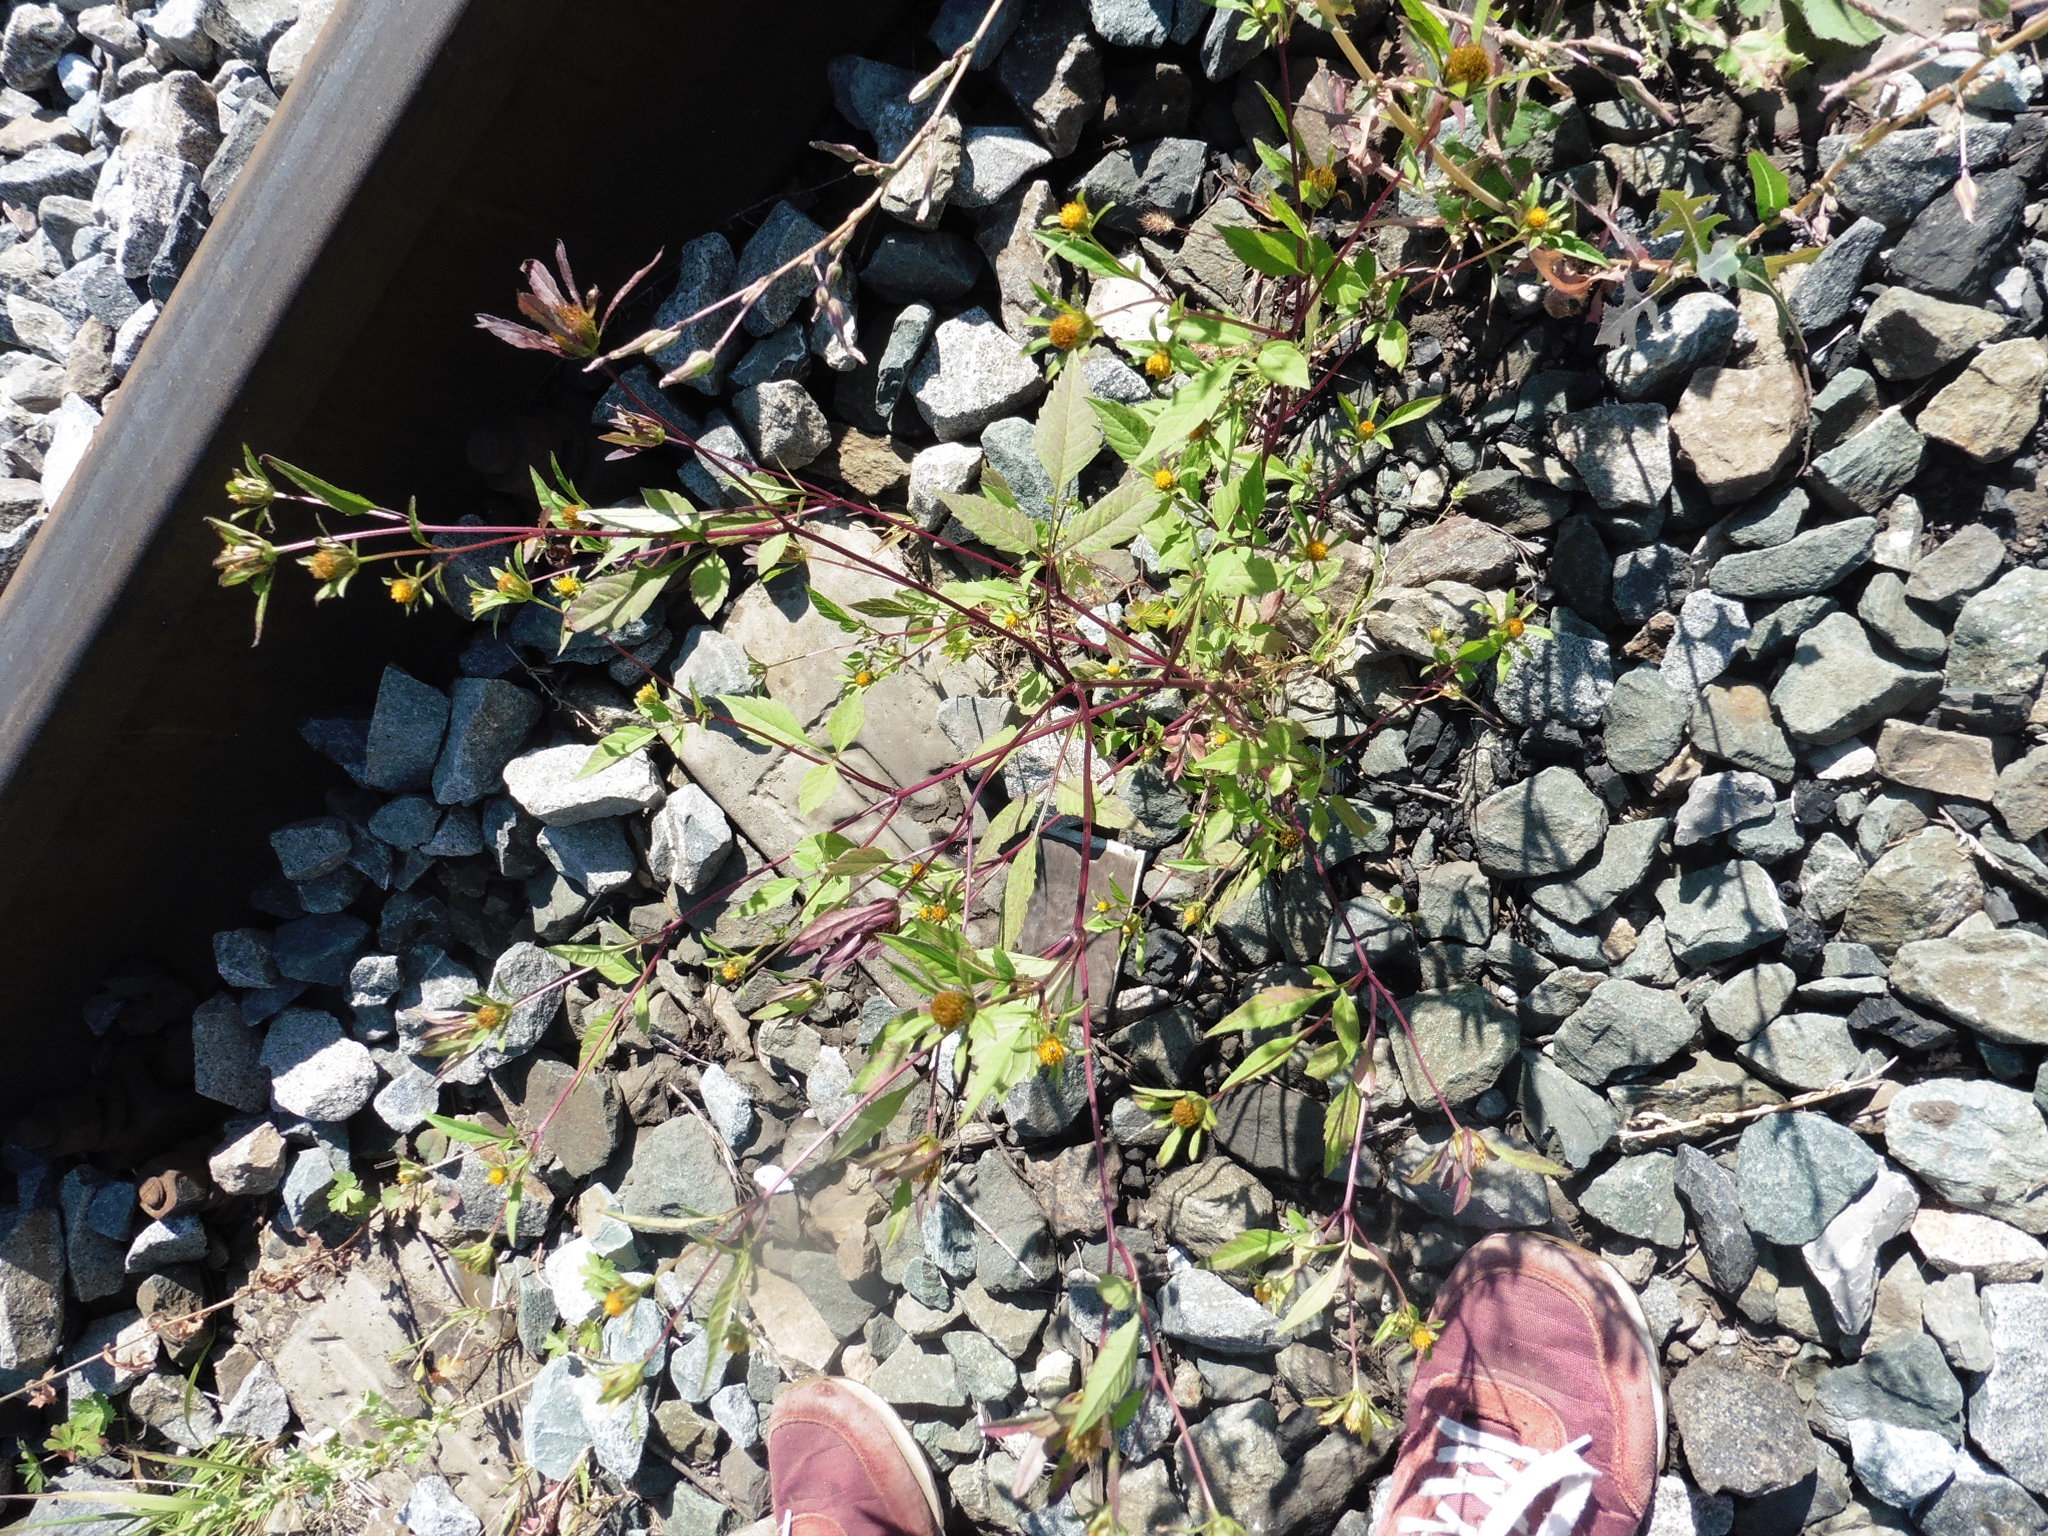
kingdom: Plantae
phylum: Tracheophyta
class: Magnoliopsida
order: Asterales
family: Asteraceae
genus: Bidens
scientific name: Bidens frondosa
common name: Beggarticks
